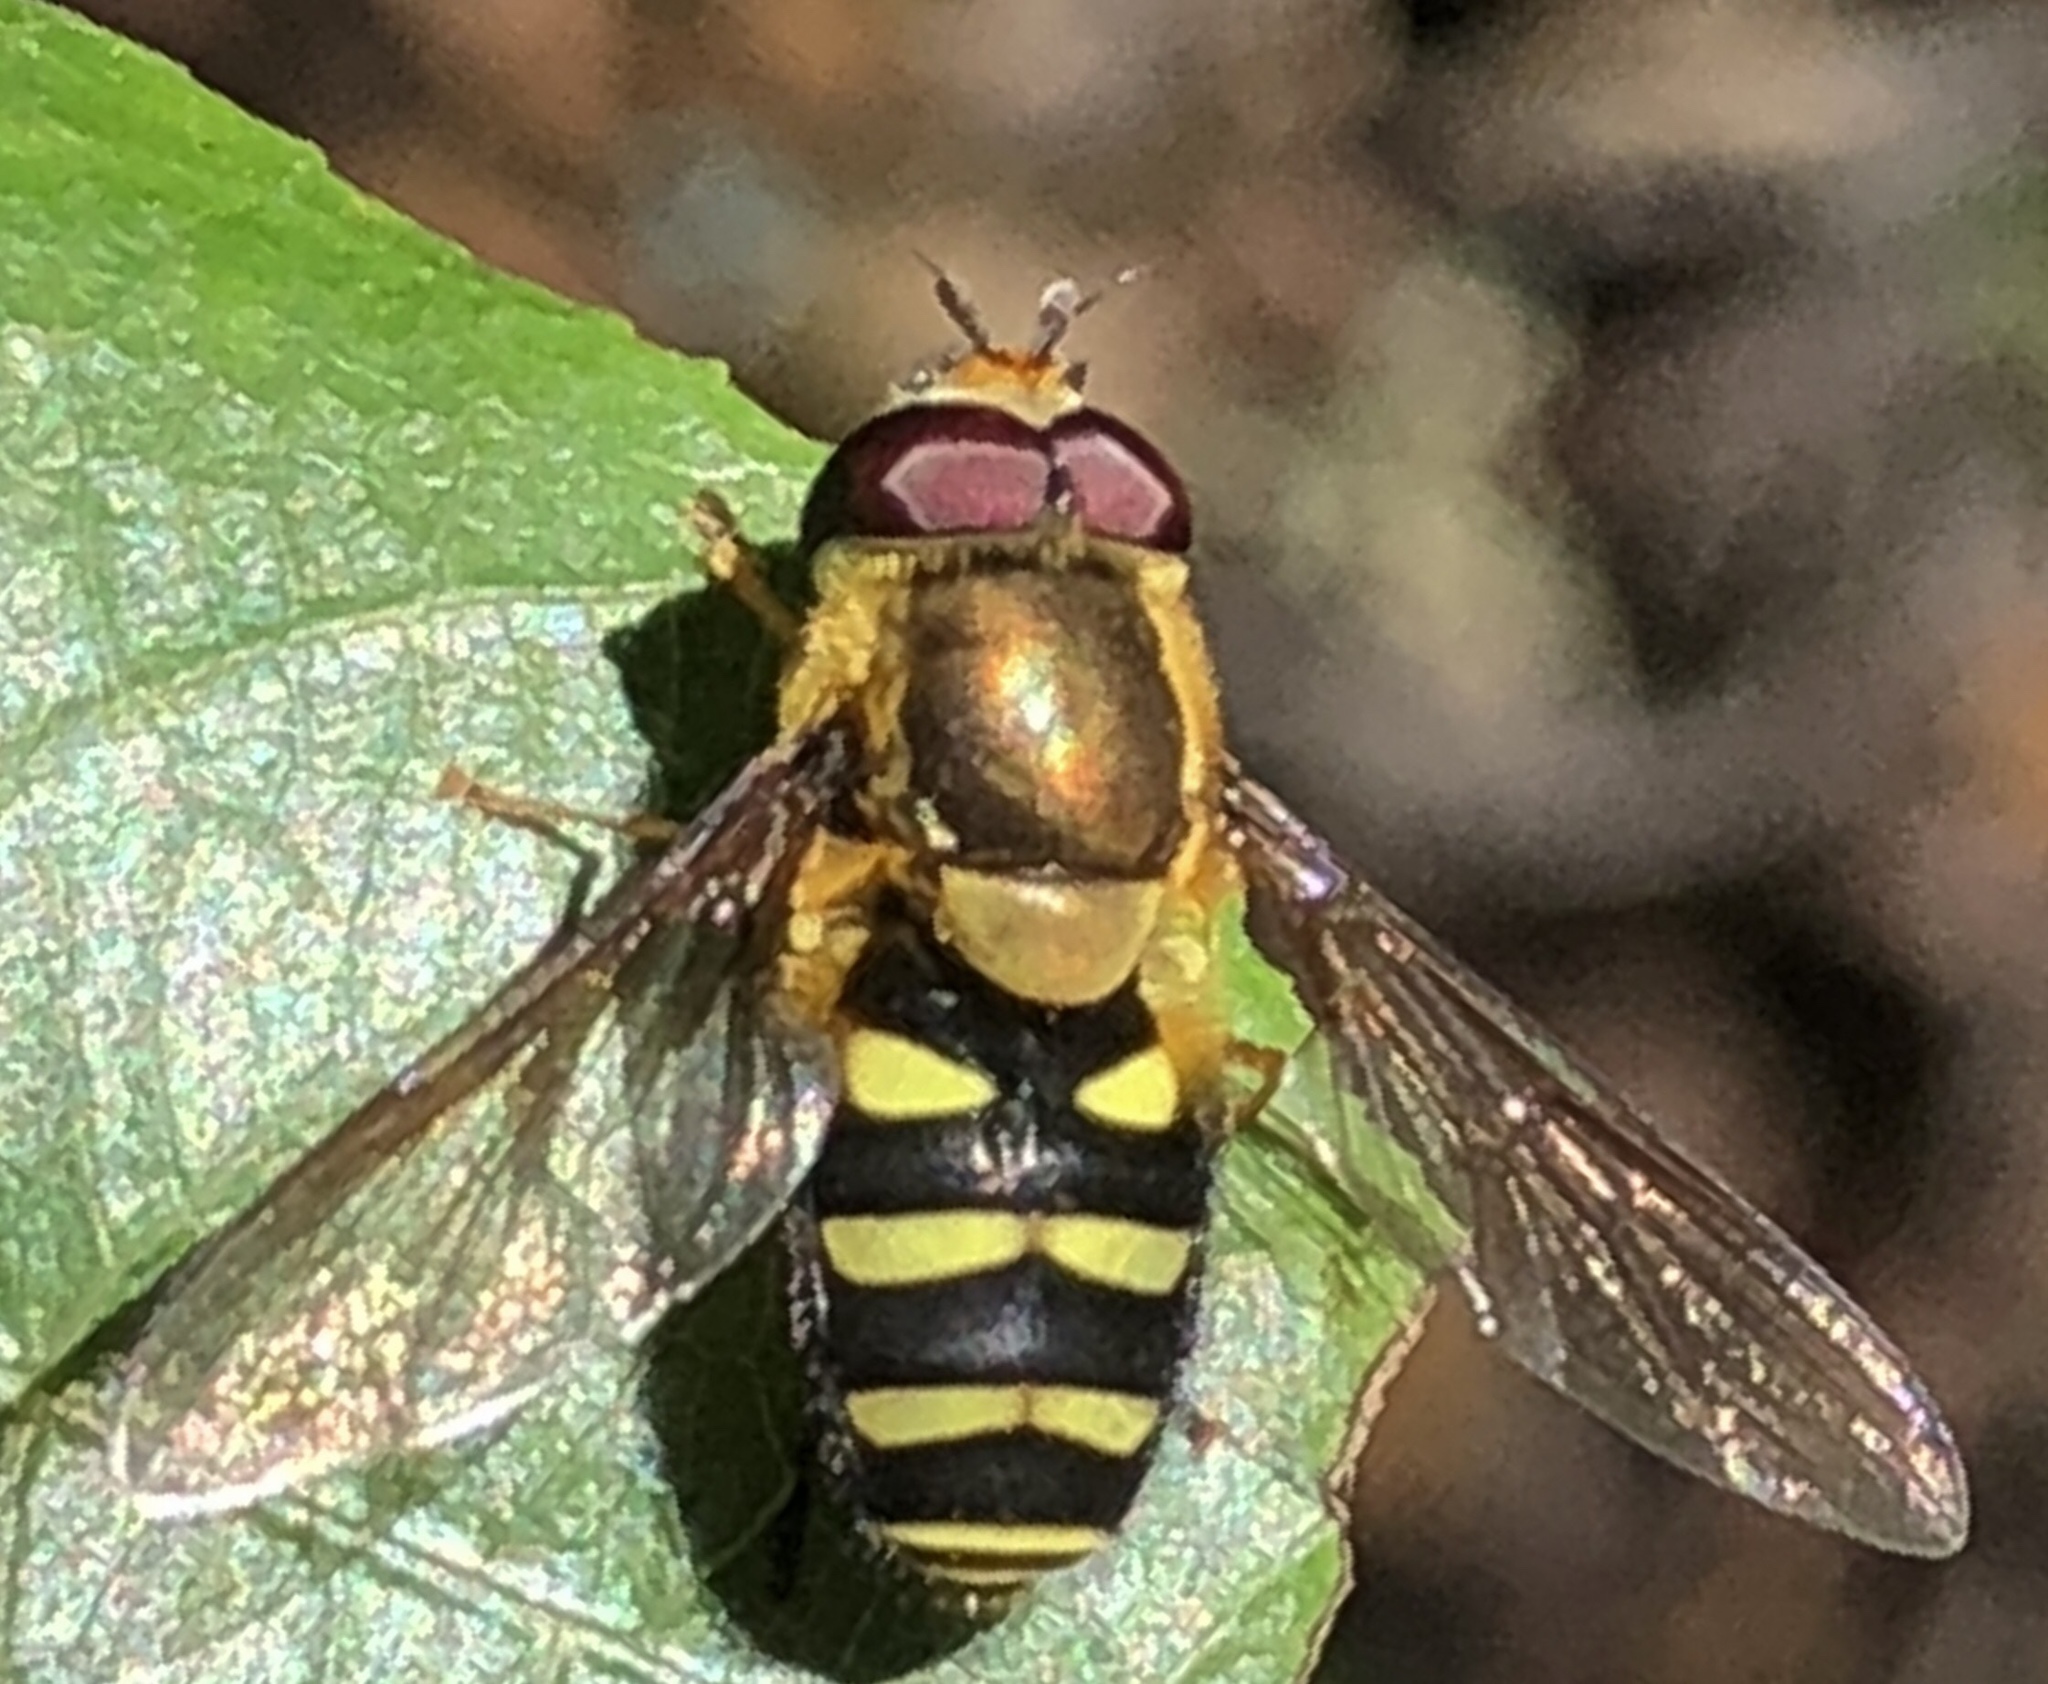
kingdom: Animalia
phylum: Arthropoda
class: Insecta
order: Diptera
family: Syrphidae
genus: Syrphus
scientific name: Syrphus opinator
